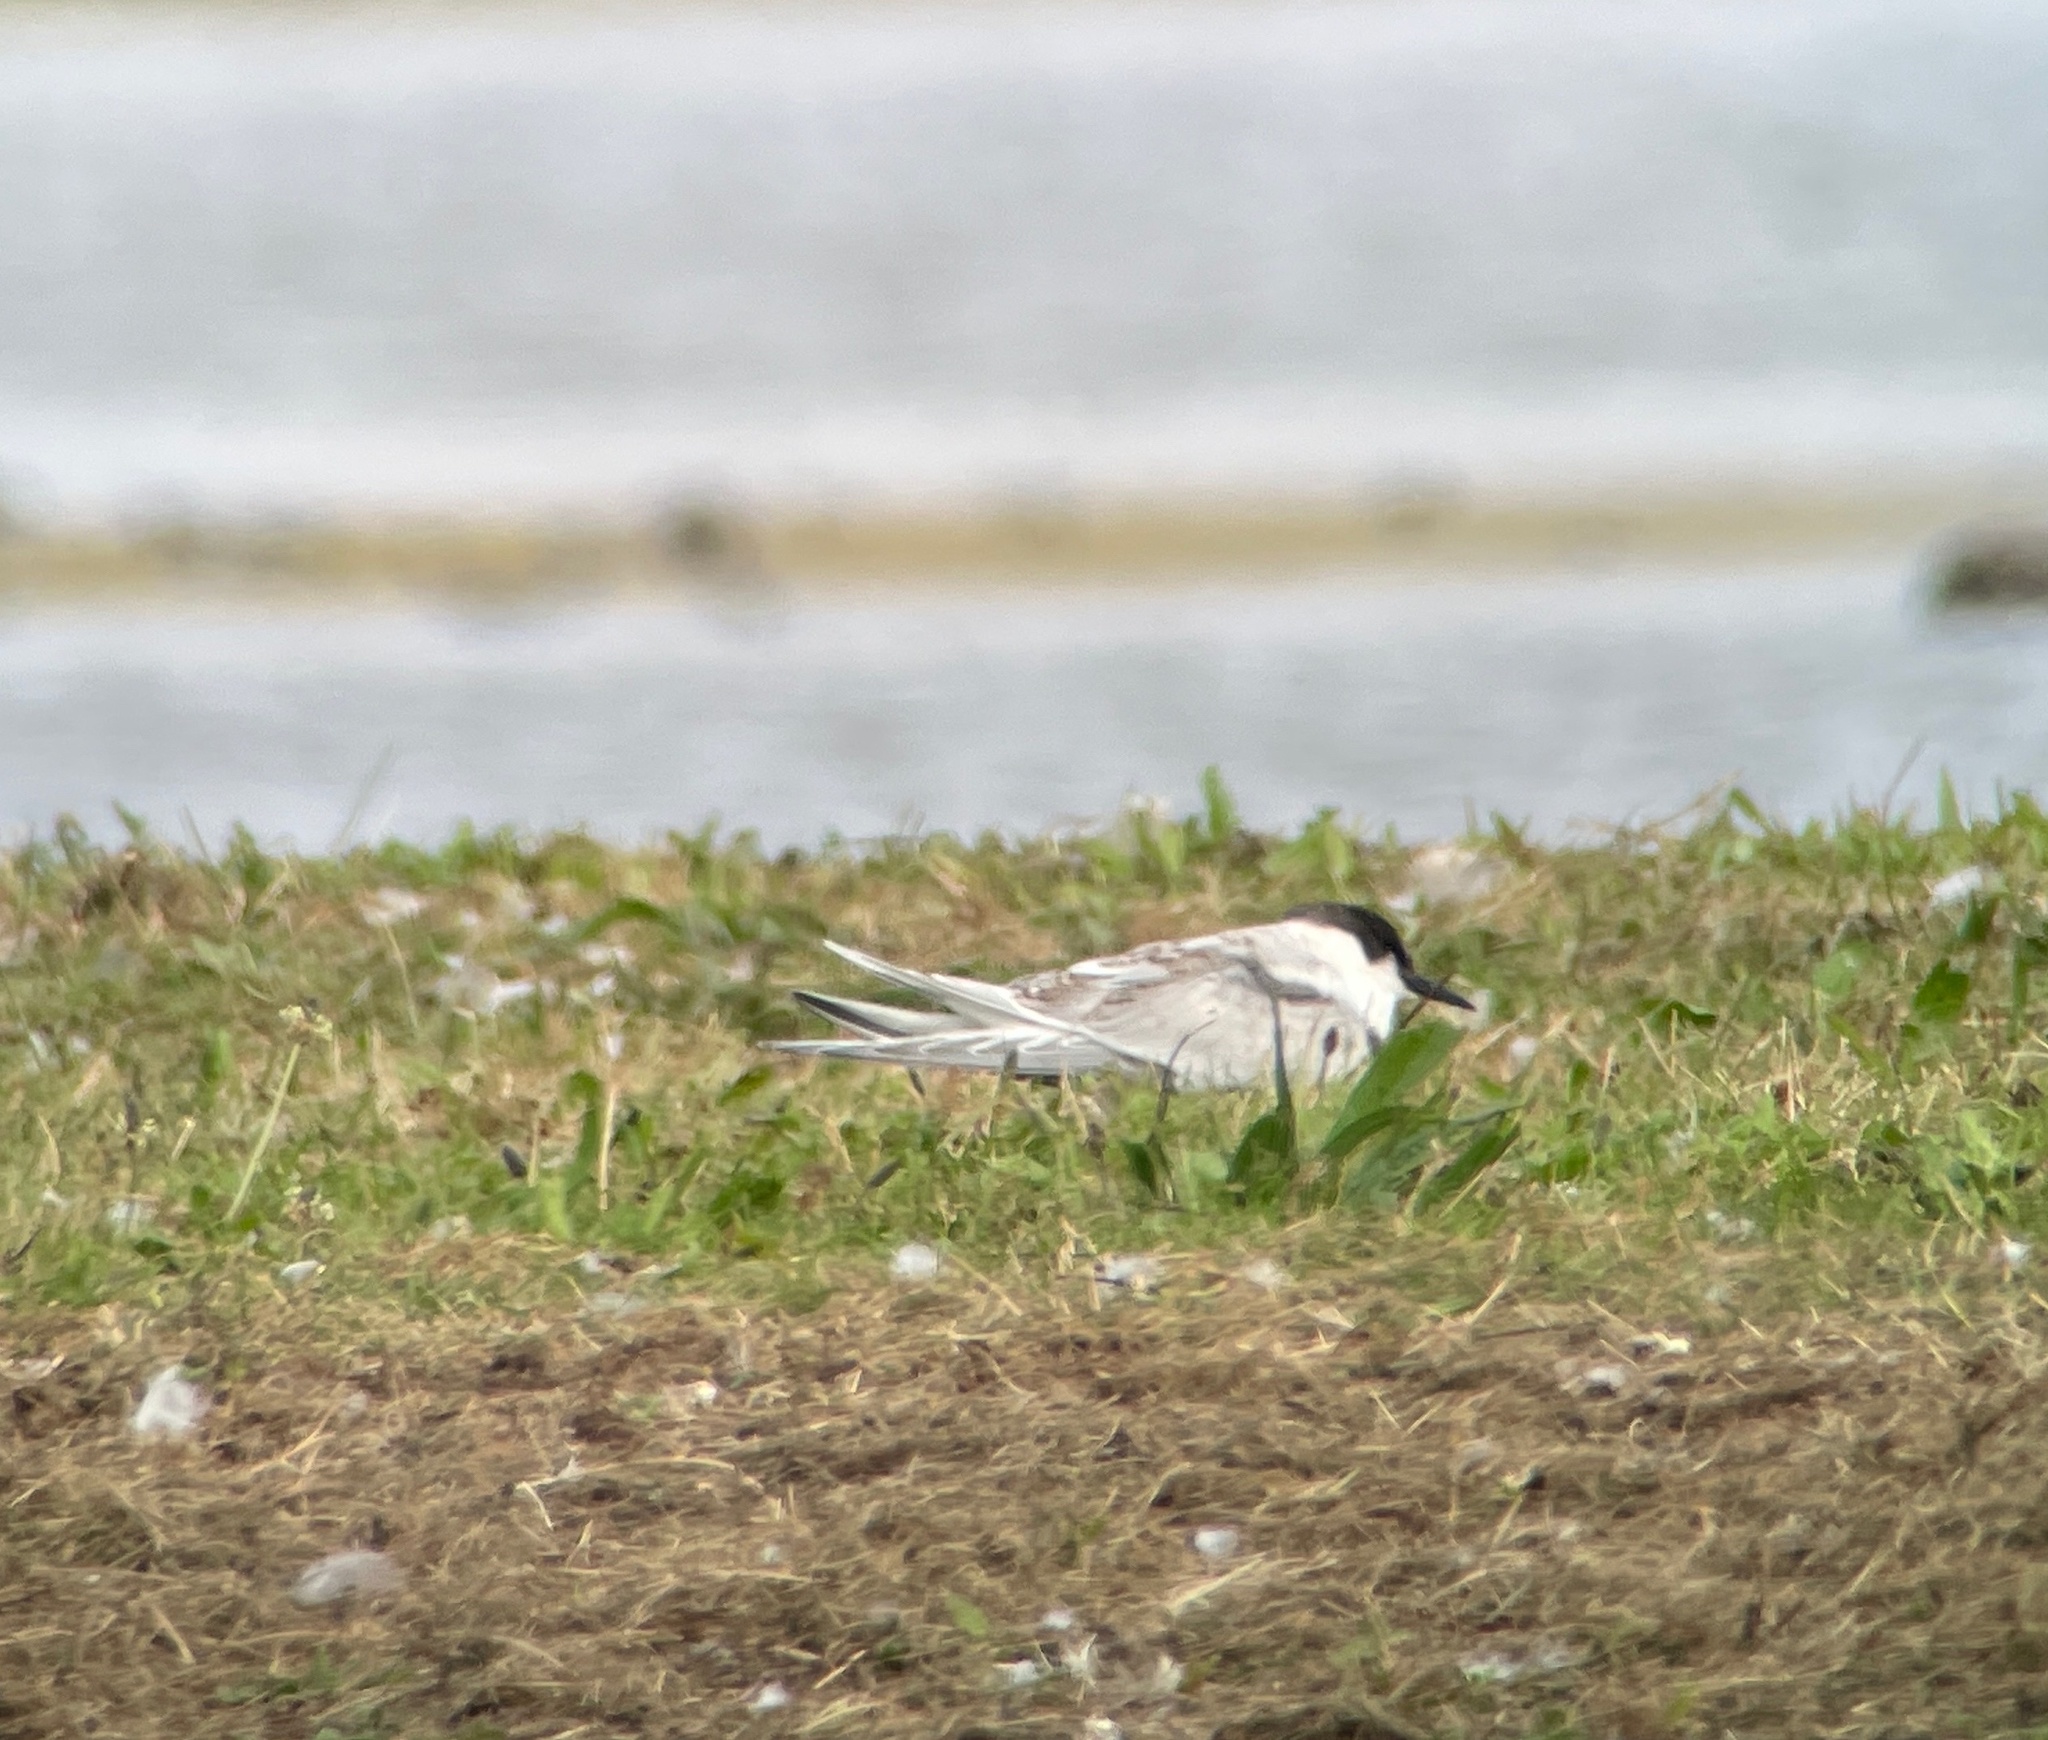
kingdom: Animalia
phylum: Chordata
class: Aves
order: Charadriiformes
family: Laridae
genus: Sterna
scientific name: Sterna dougallii
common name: Roseate tern
